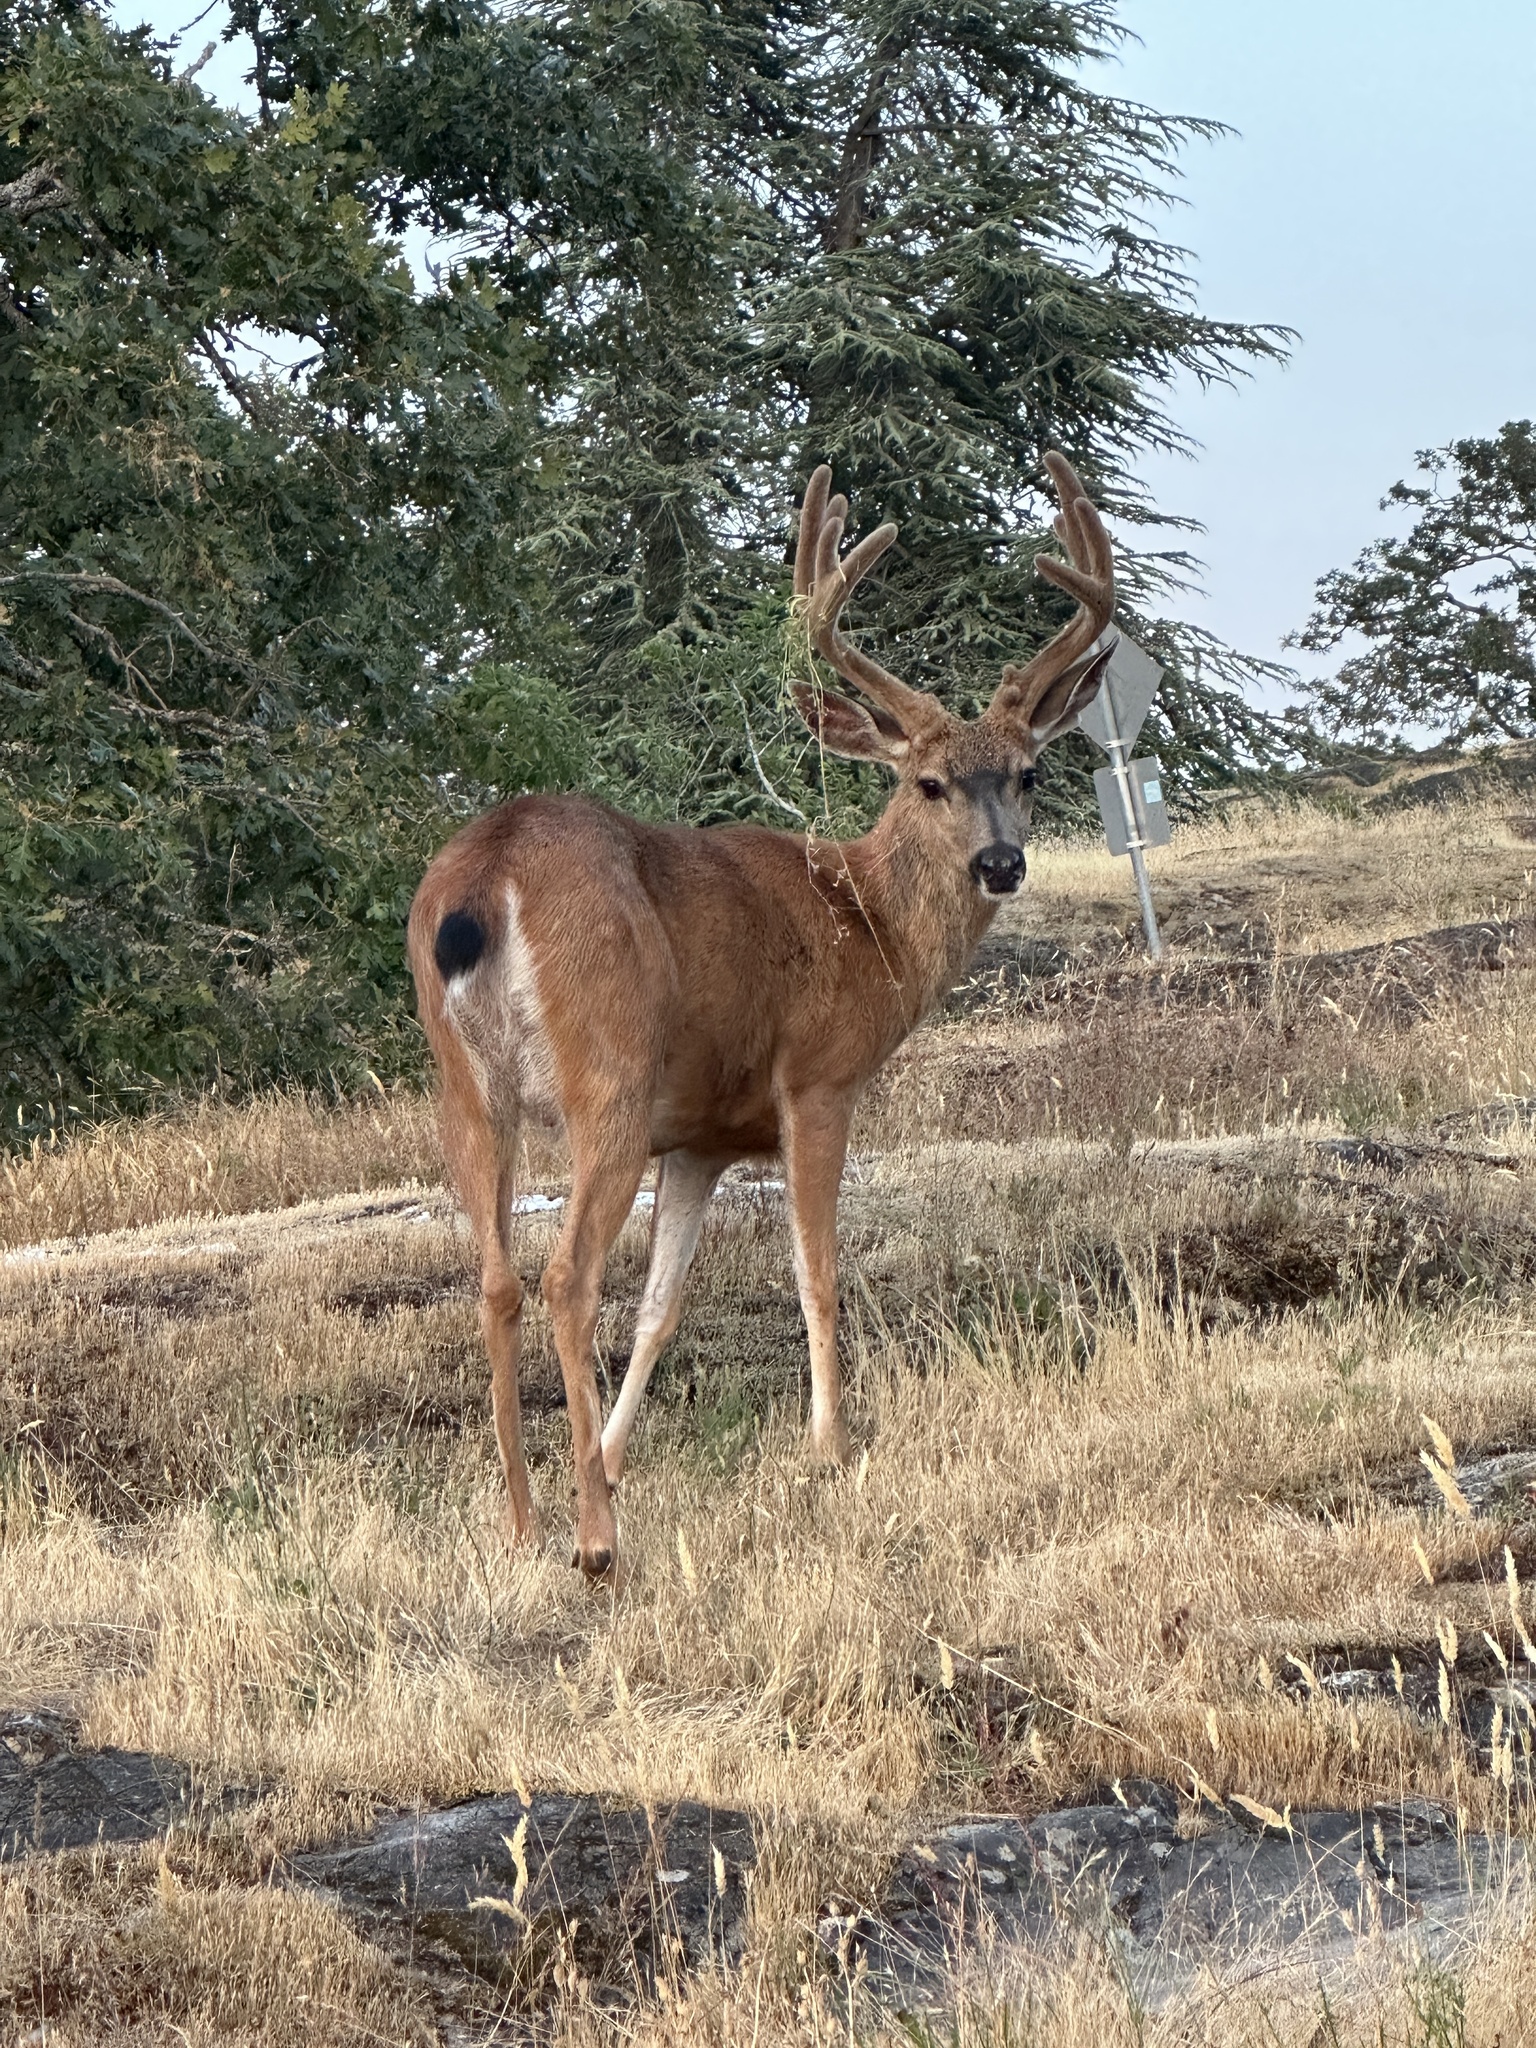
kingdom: Animalia
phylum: Chordata
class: Mammalia
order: Artiodactyla
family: Cervidae
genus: Odocoileus
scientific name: Odocoileus hemionus
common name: Mule deer
